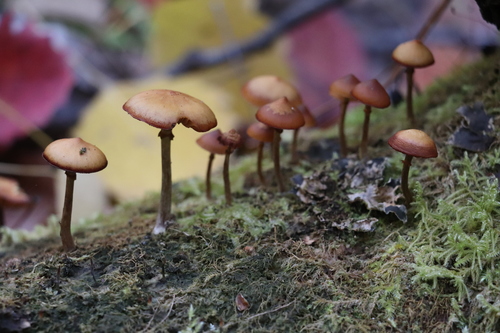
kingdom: Fungi
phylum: Basidiomycota
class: Agaricomycetes
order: Agaricales
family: Hymenogastraceae
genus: Galerina
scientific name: Galerina marginata
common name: Funeral bell
